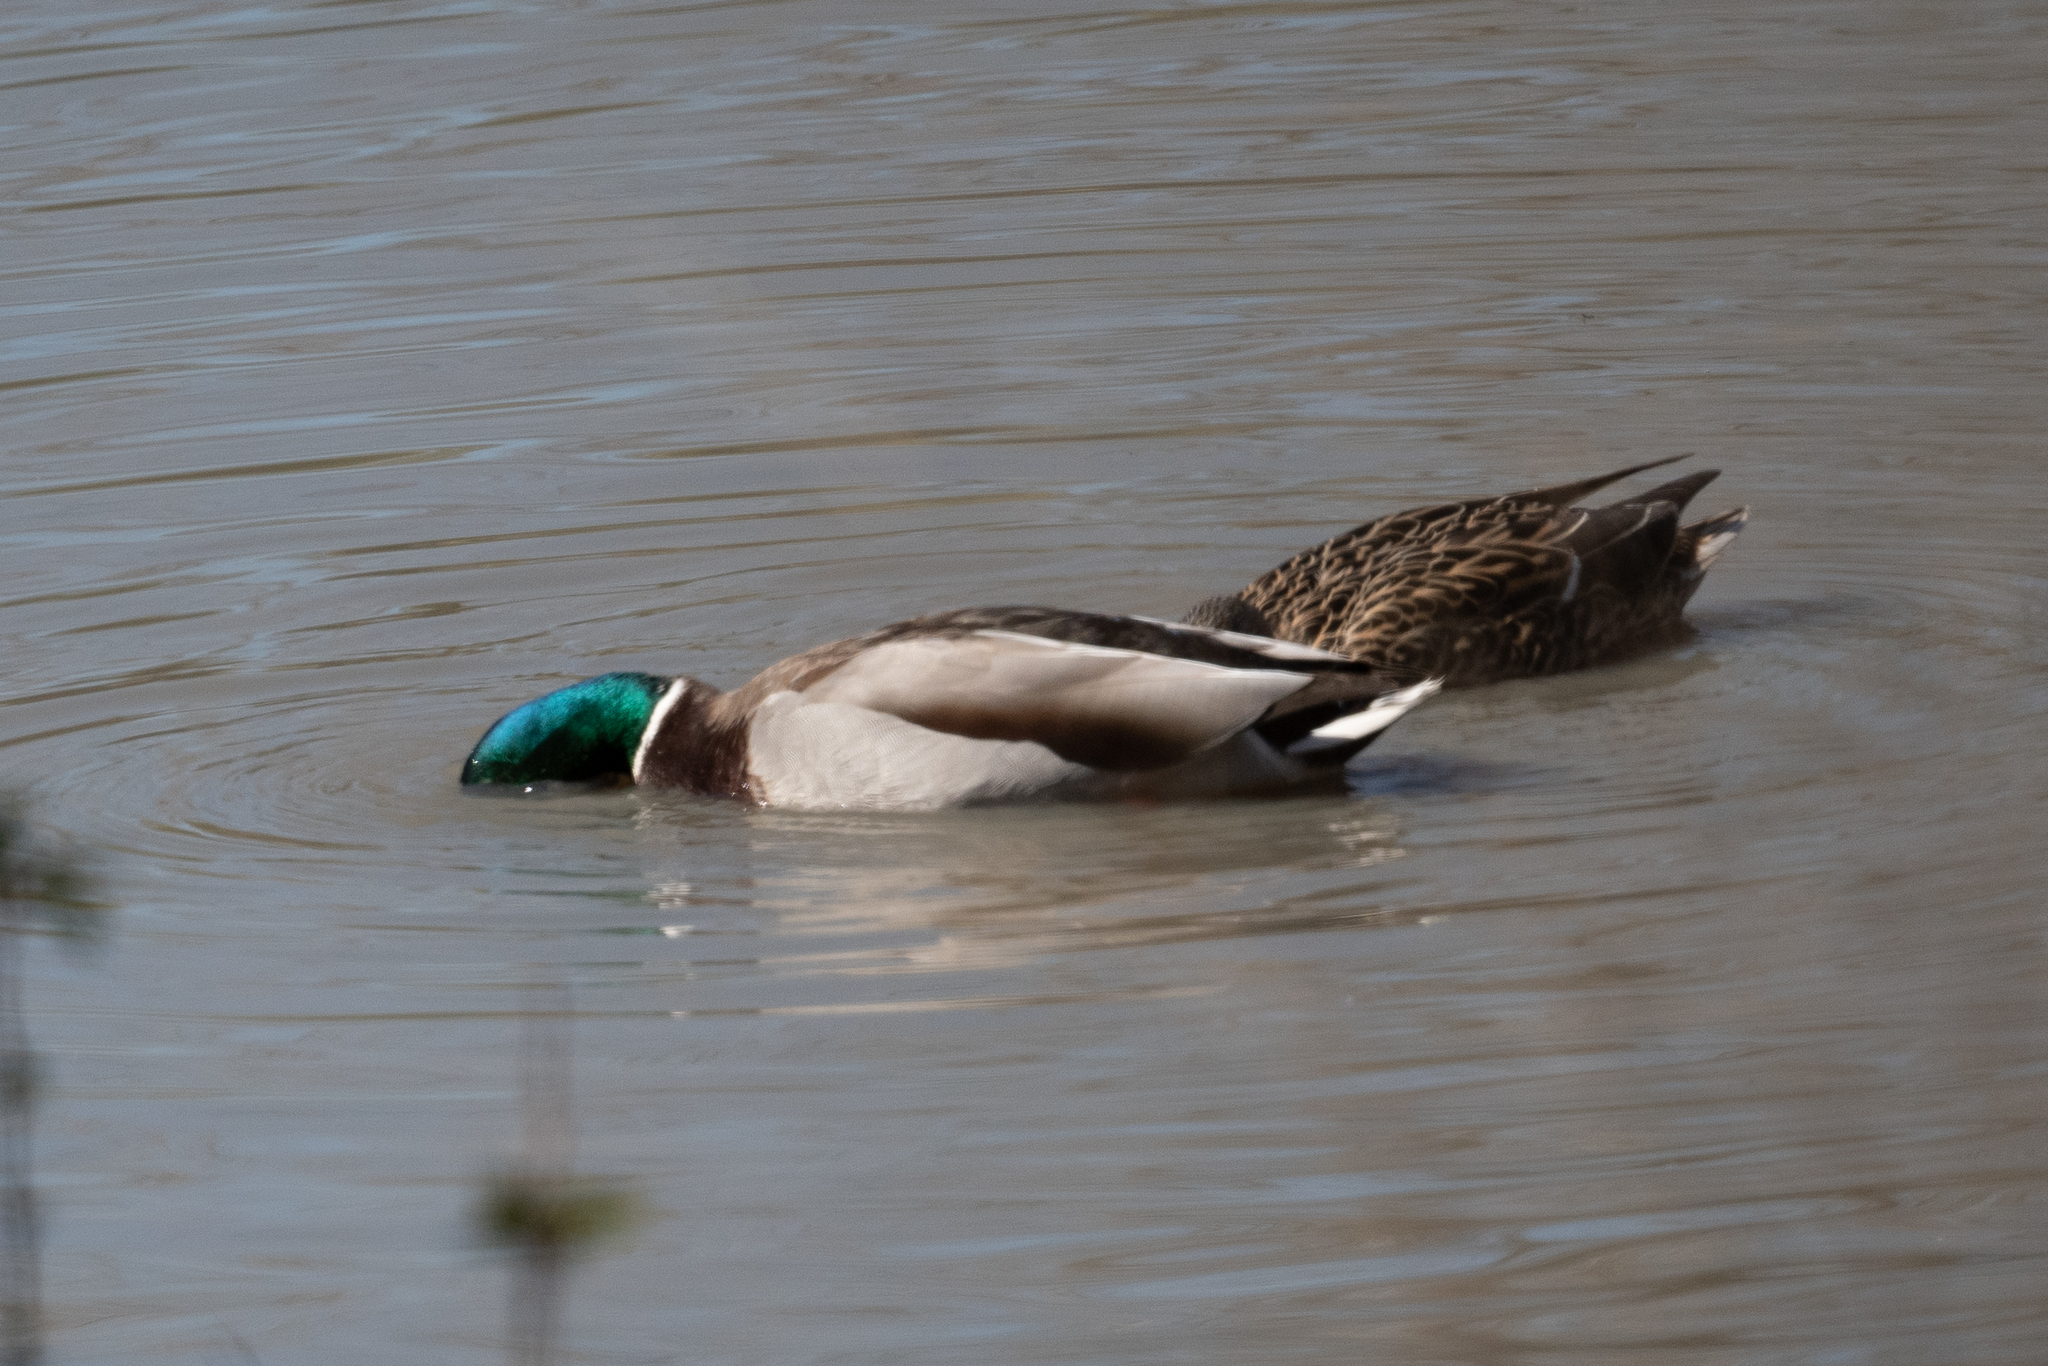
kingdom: Animalia
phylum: Chordata
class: Aves
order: Anseriformes
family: Anatidae
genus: Anas
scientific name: Anas platyrhynchos
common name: Mallard
